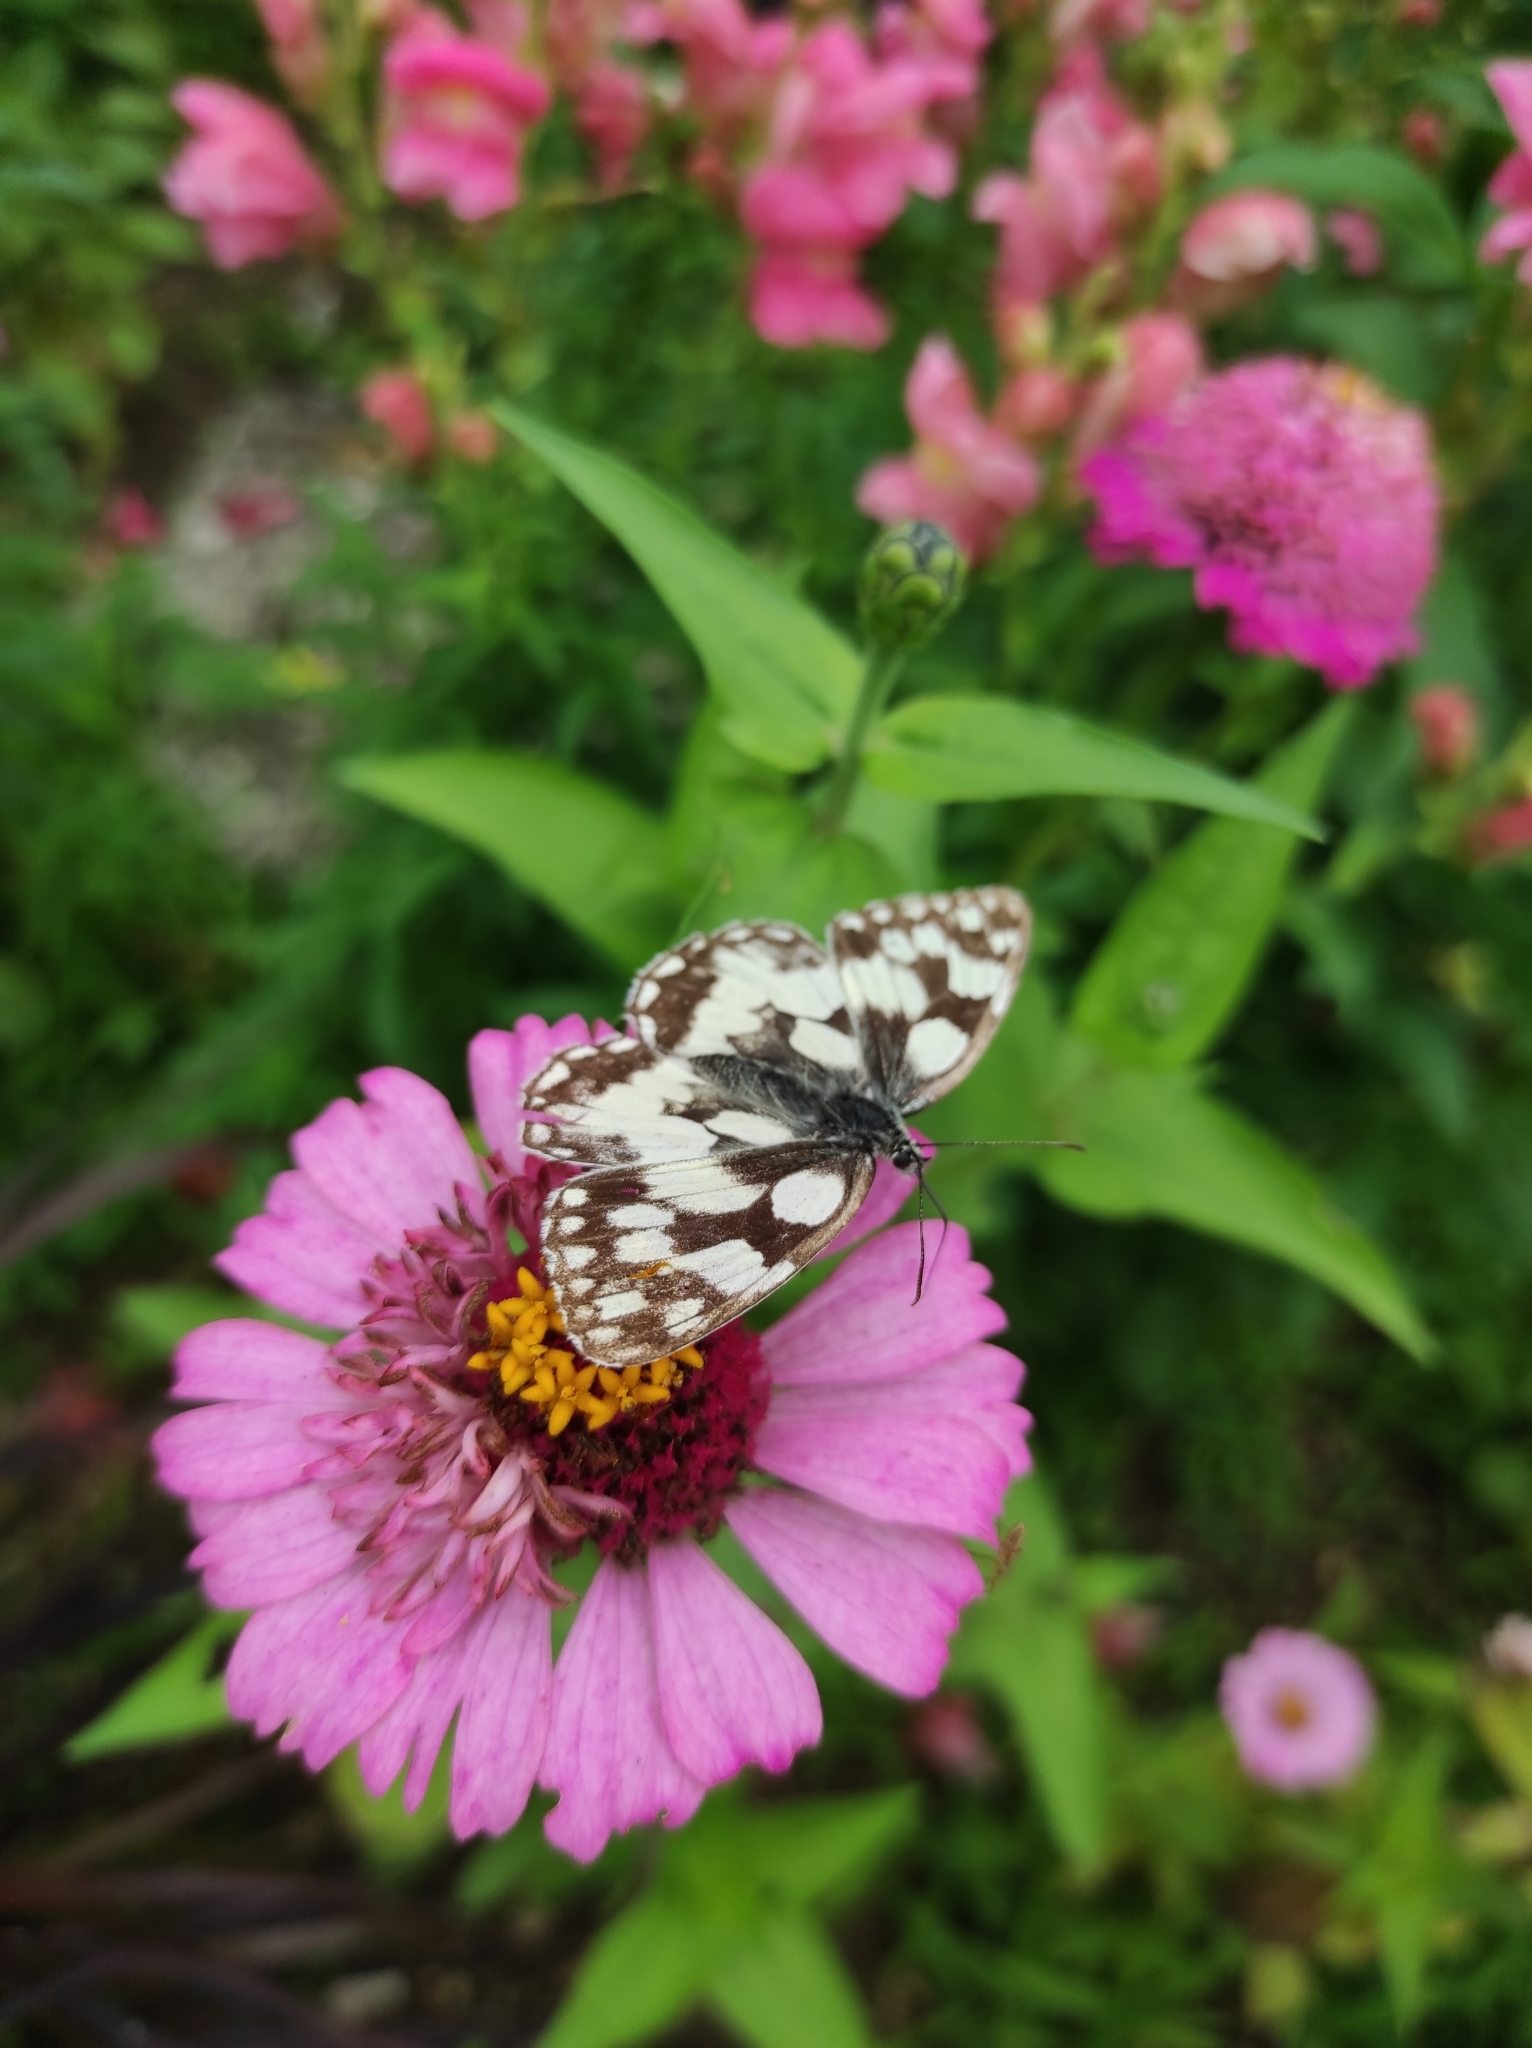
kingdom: Animalia
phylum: Arthropoda
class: Insecta
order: Lepidoptera
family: Nymphalidae
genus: Melanargia
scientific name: Melanargia galathea
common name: Marbled white
